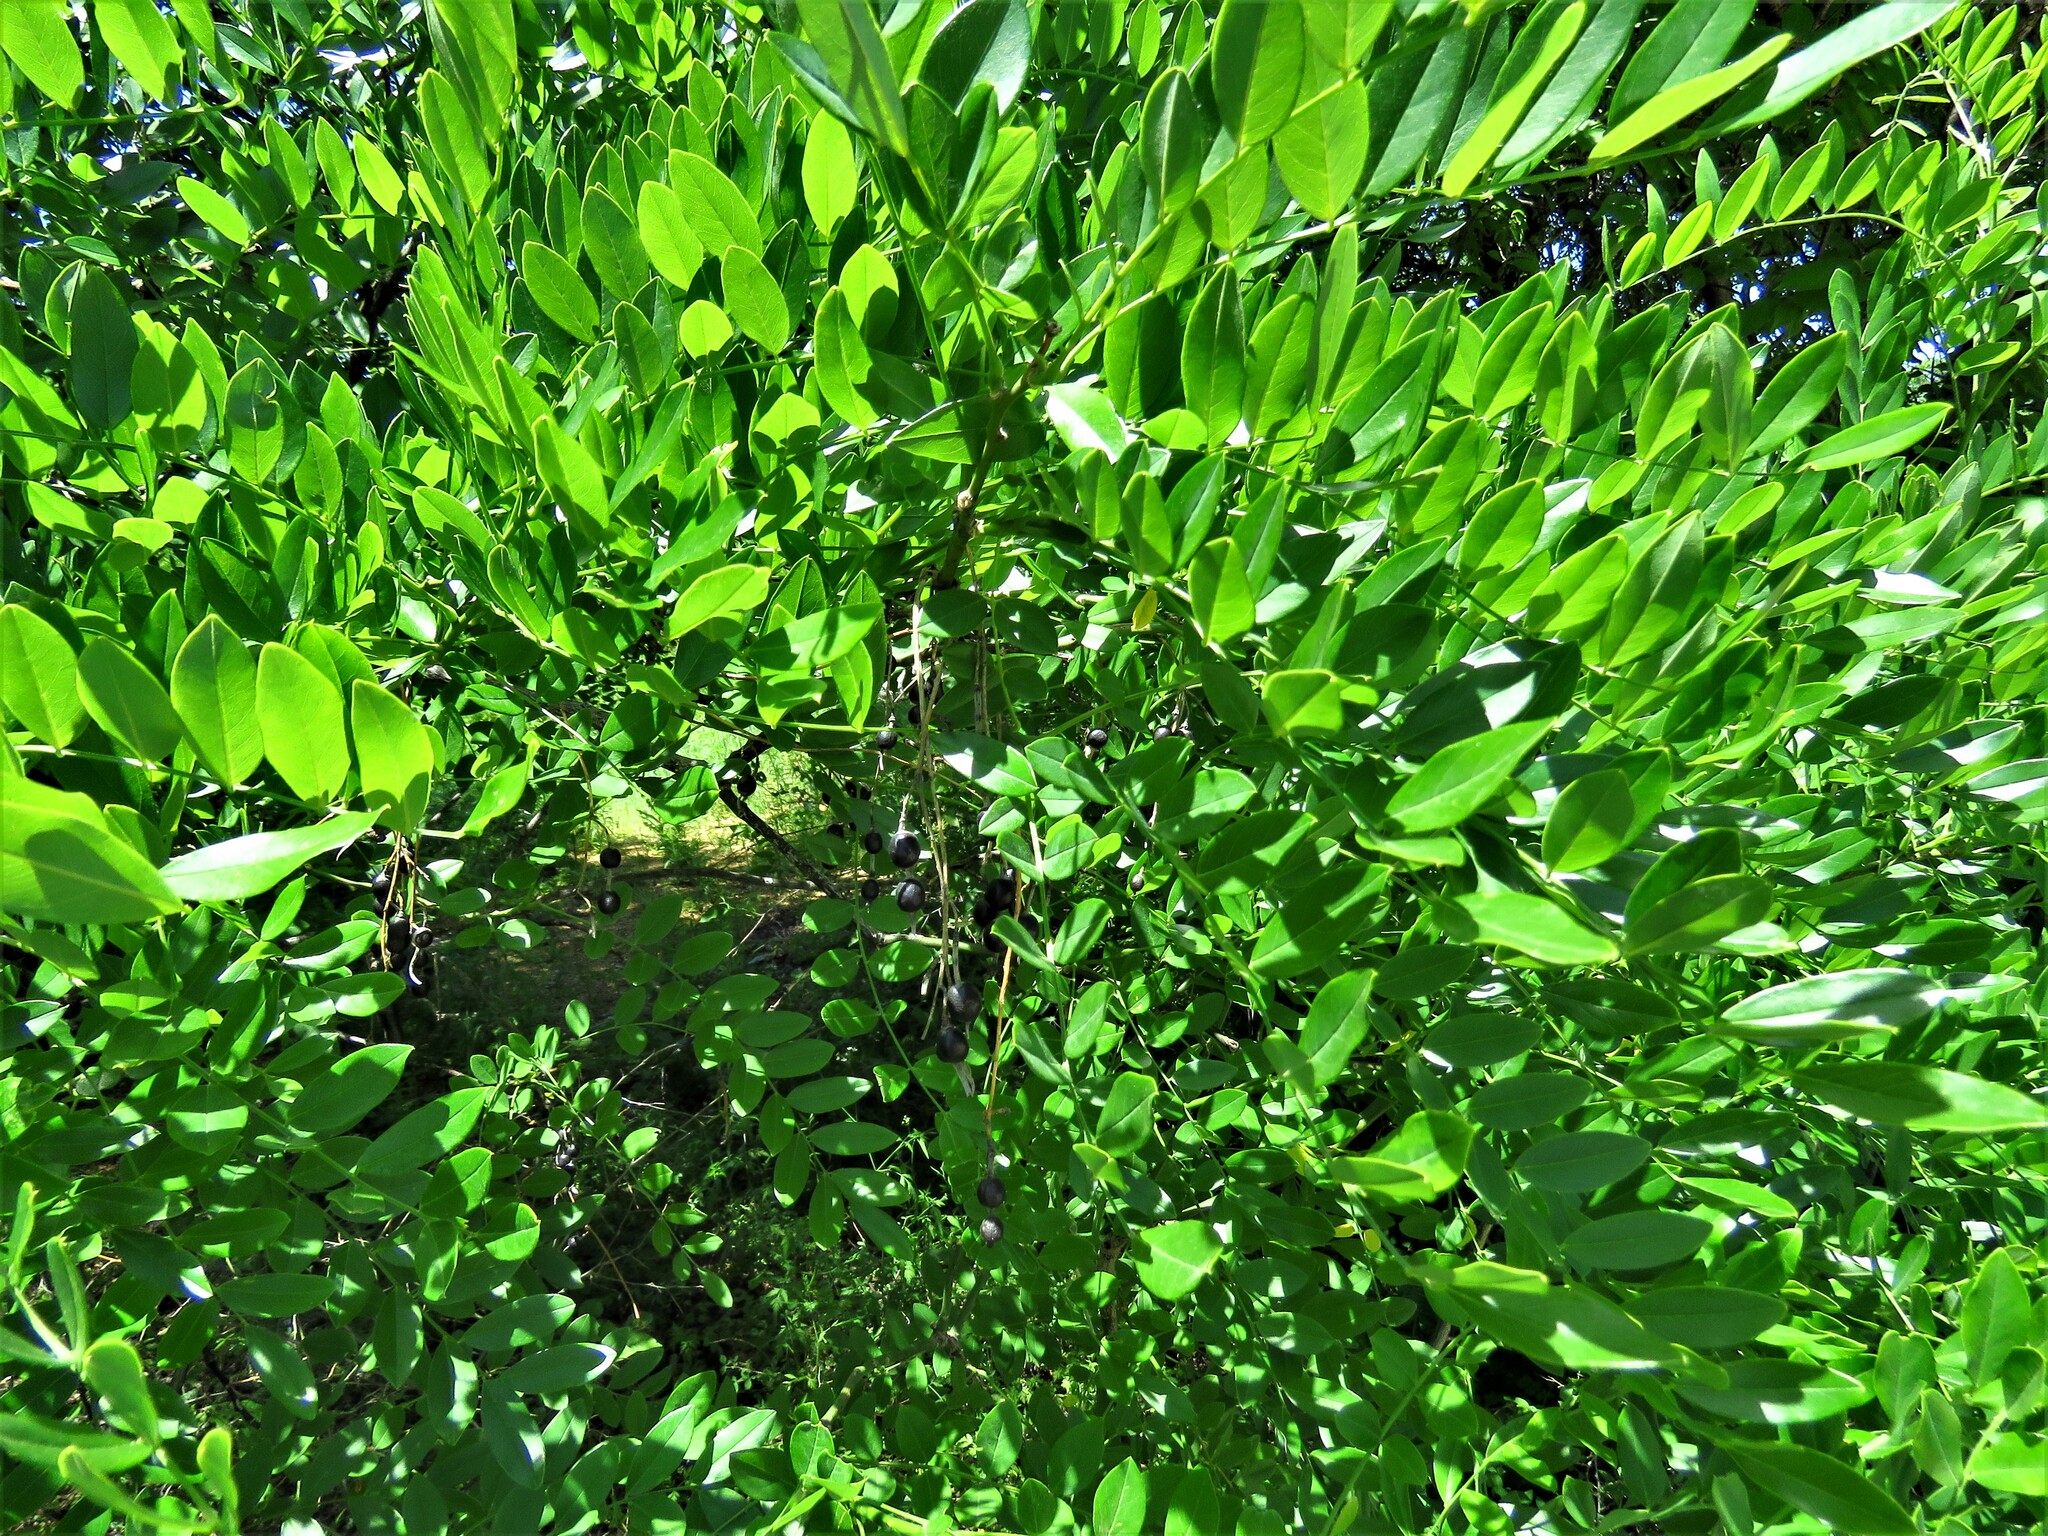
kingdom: Plantae
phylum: Tracheophyta
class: Magnoliopsida
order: Fabales
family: Fabaceae
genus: Styphnolobium
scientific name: Styphnolobium affine
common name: Texas sophora
